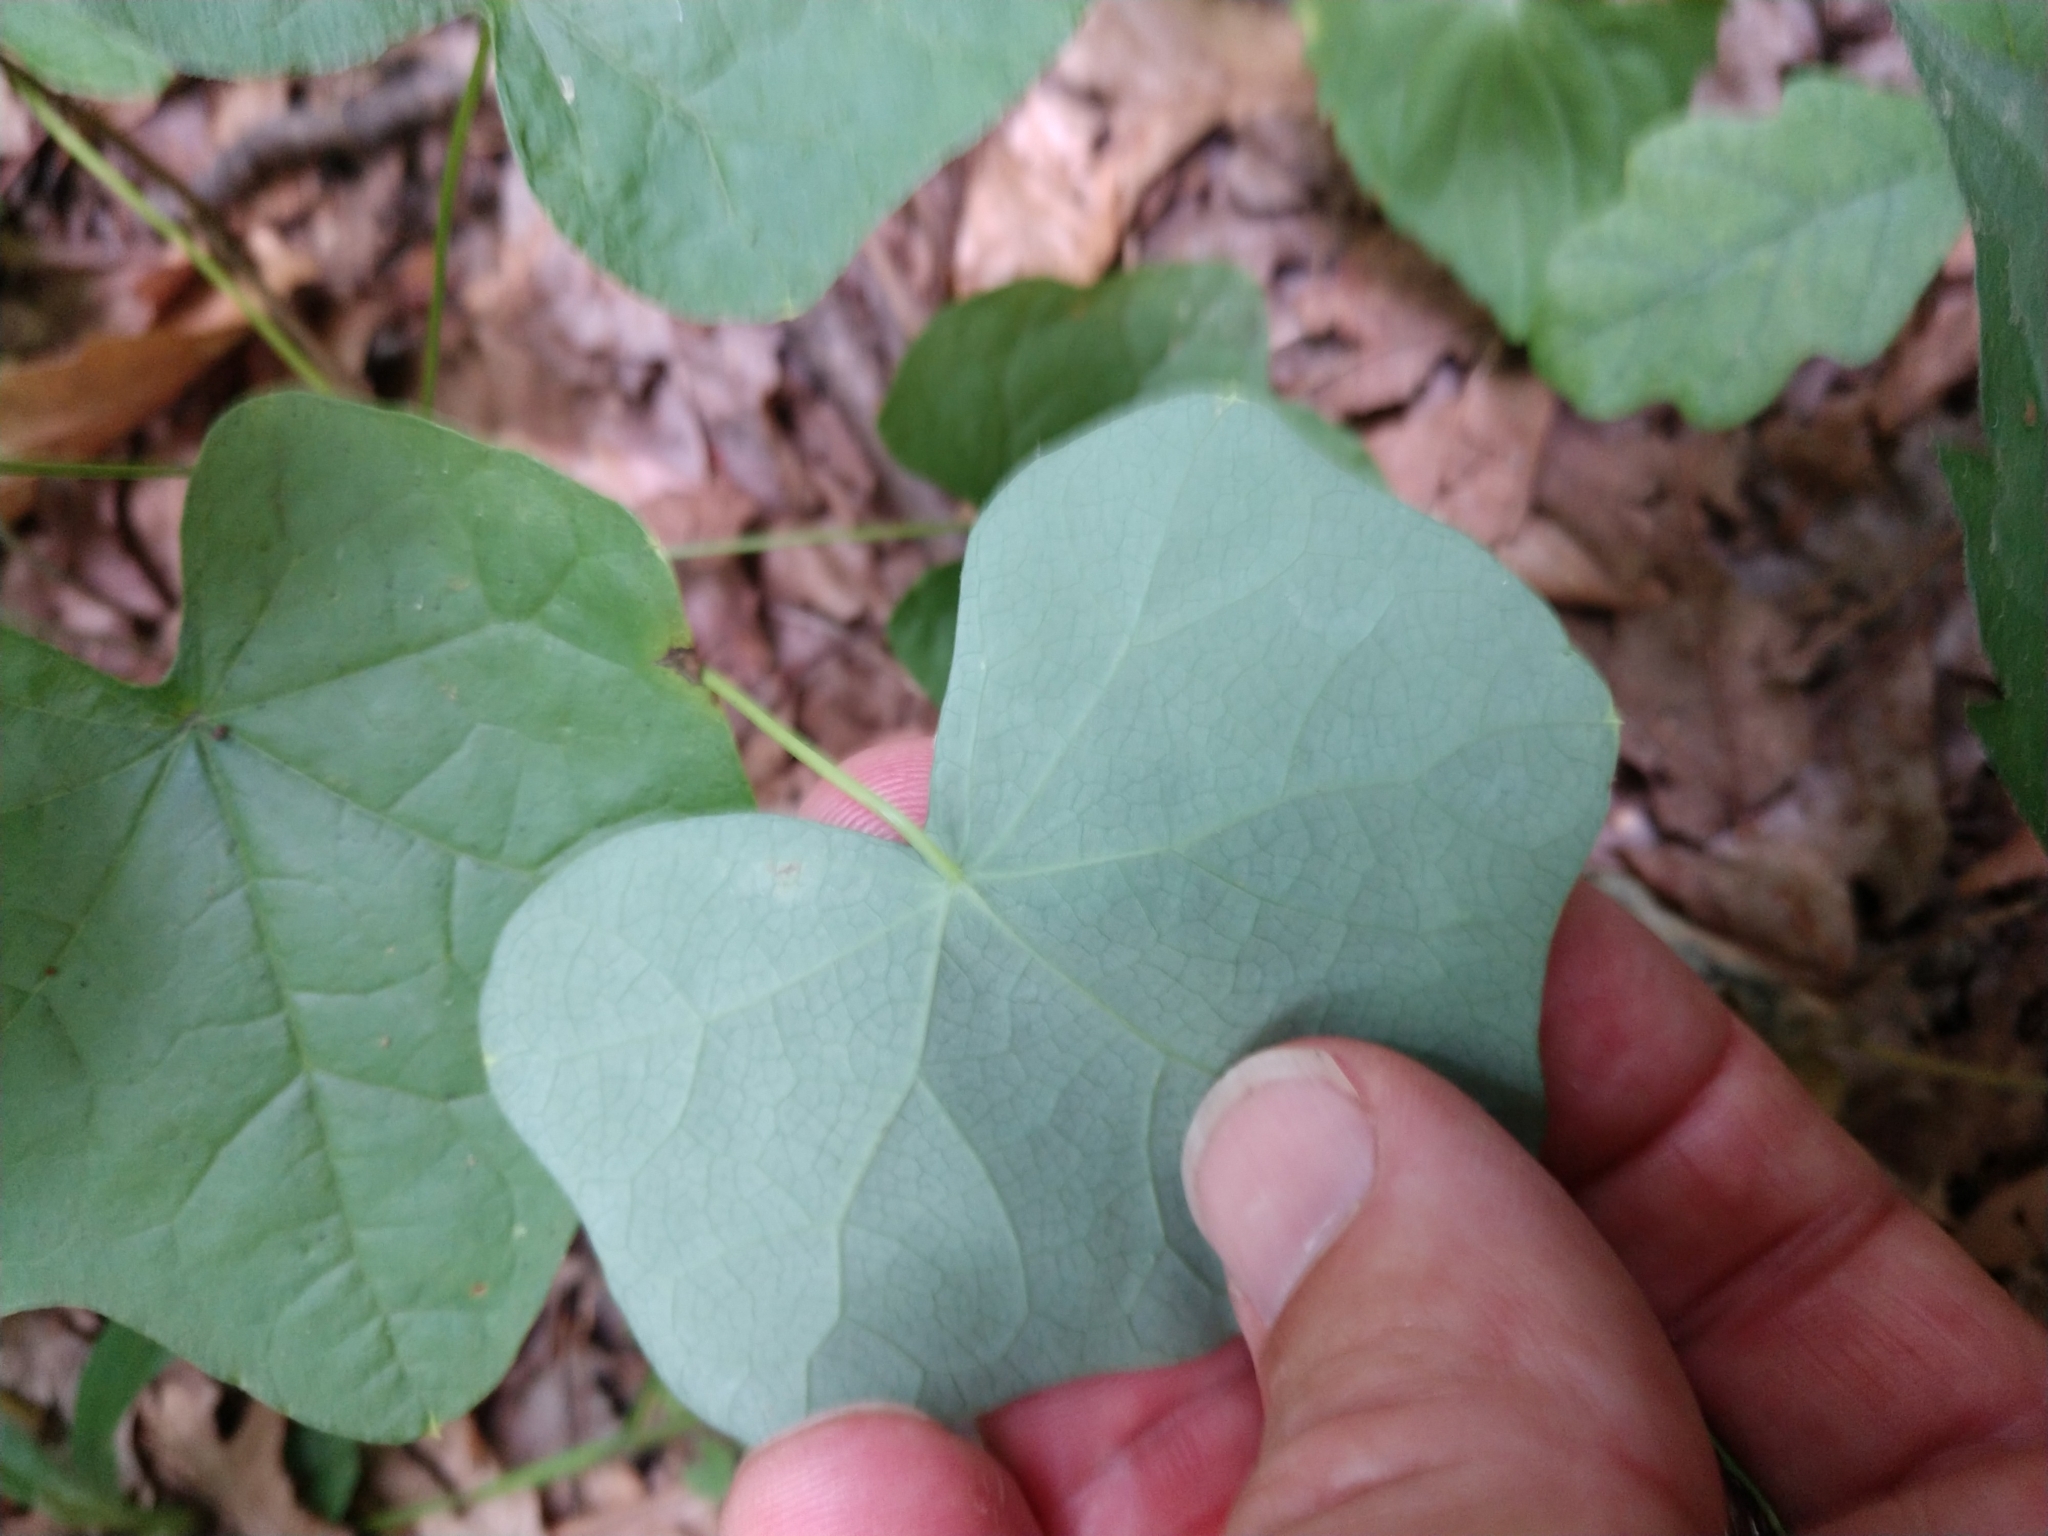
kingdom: Plantae
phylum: Tracheophyta
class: Magnoliopsida
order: Ranunculales
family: Menispermaceae
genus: Menispermum
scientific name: Menispermum canadense
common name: Moonseed
